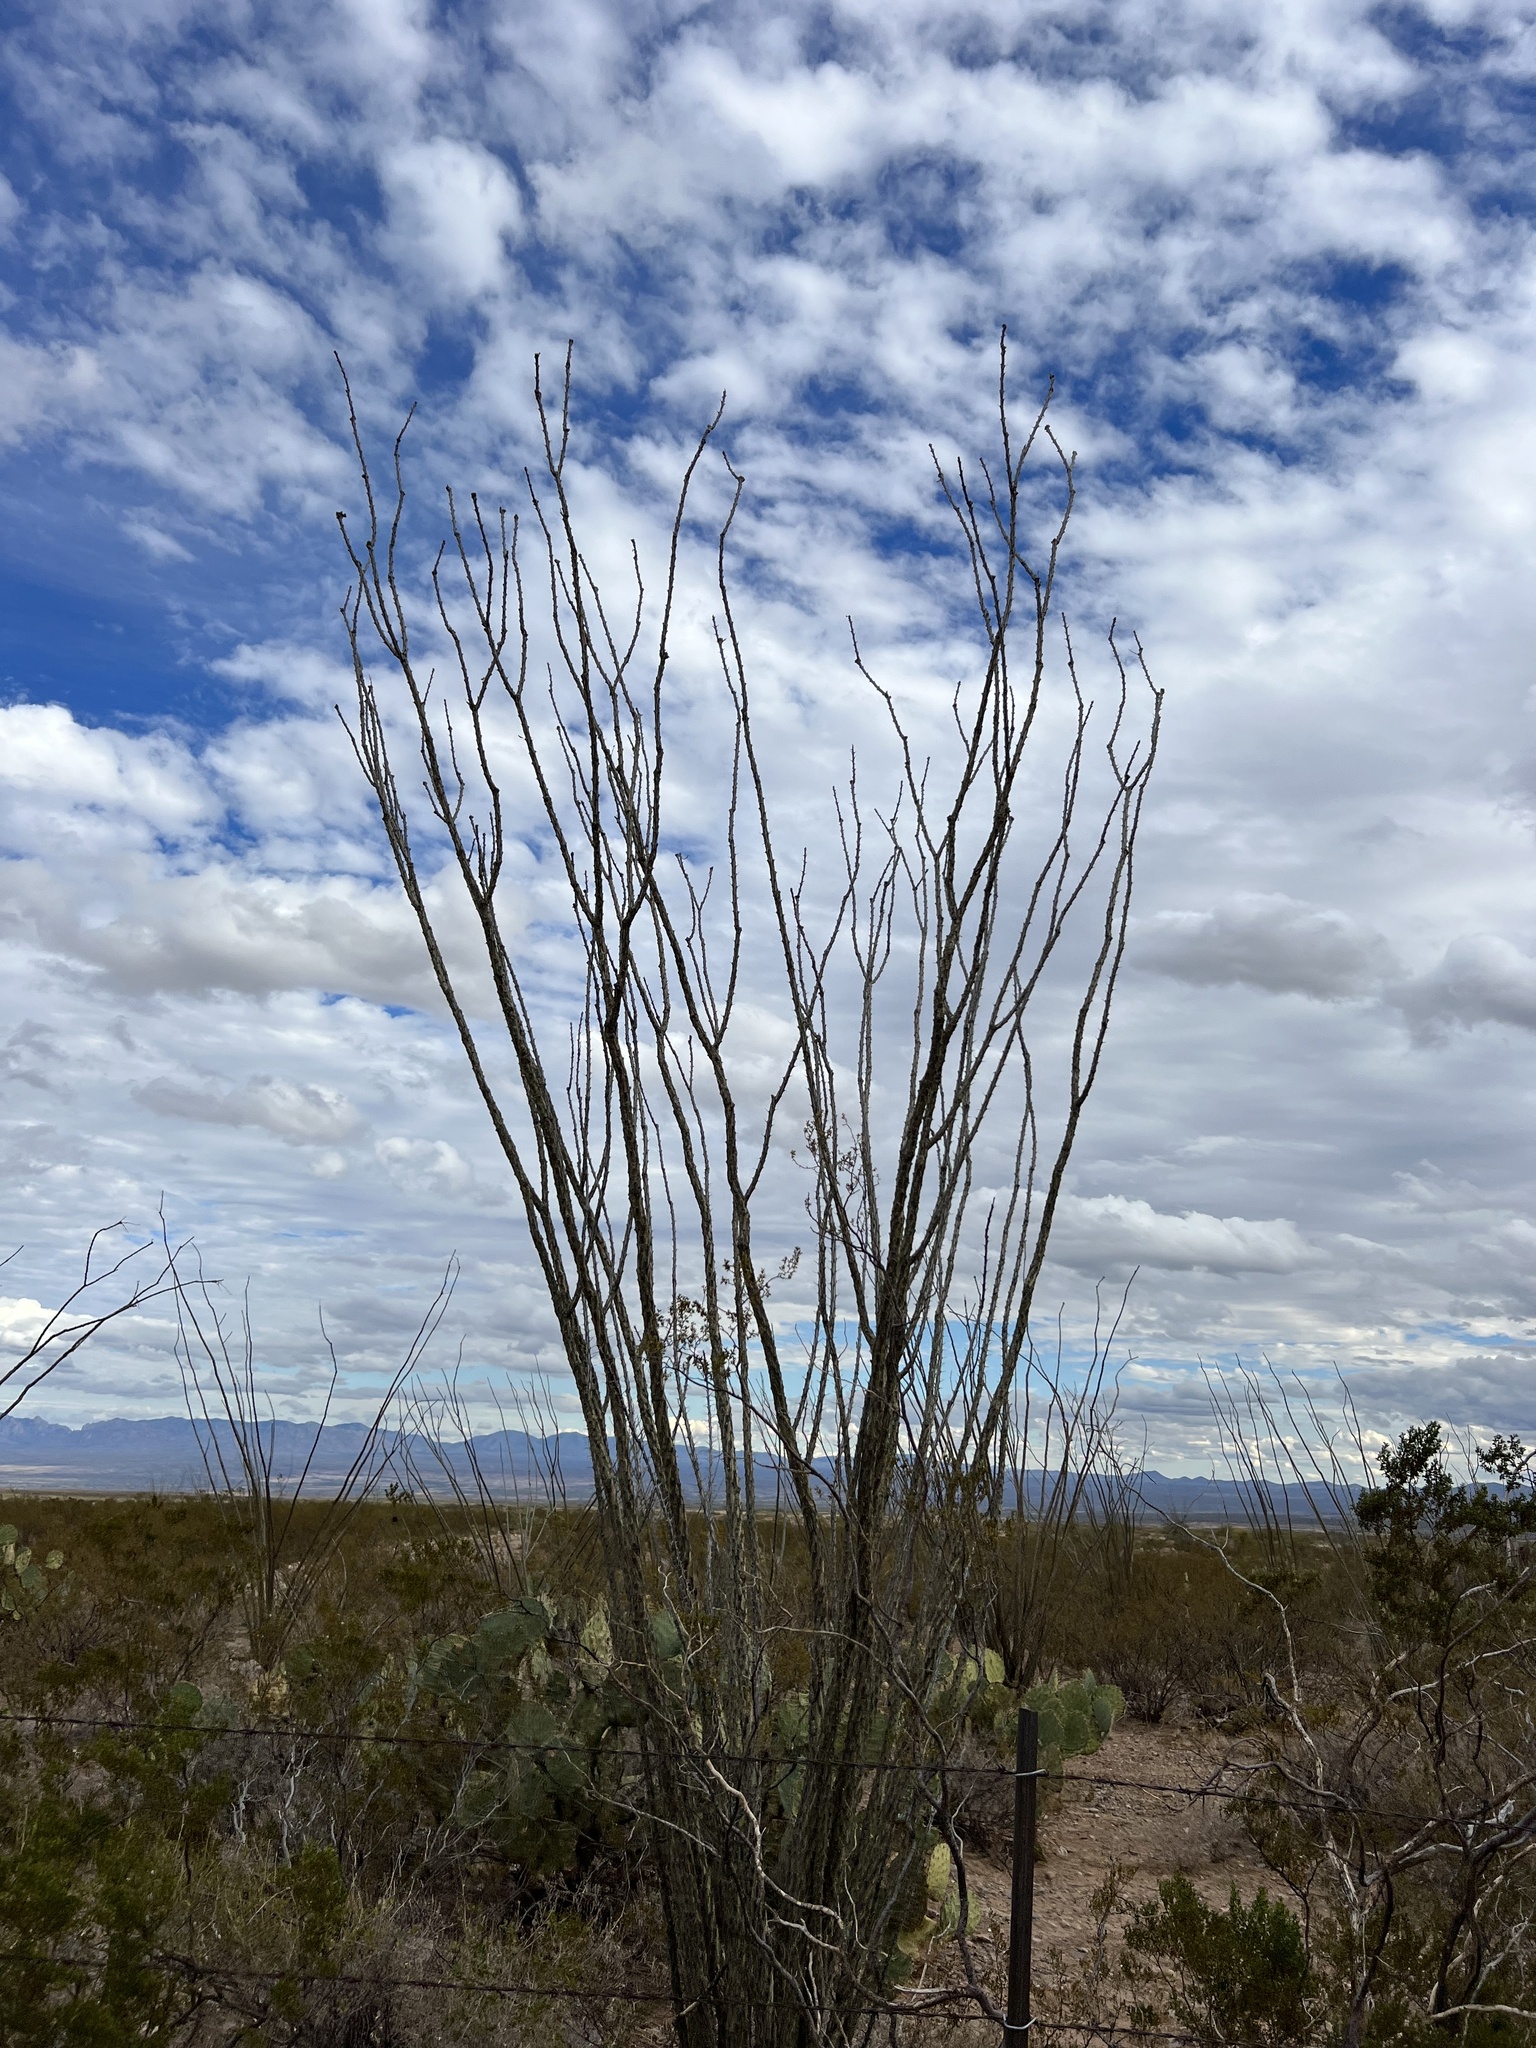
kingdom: Plantae
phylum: Tracheophyta
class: Magnoliopsida
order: Ericales
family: Fouquieriaceae
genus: Fouquieria
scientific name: Fouquieria splendens
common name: Vine-cactus
